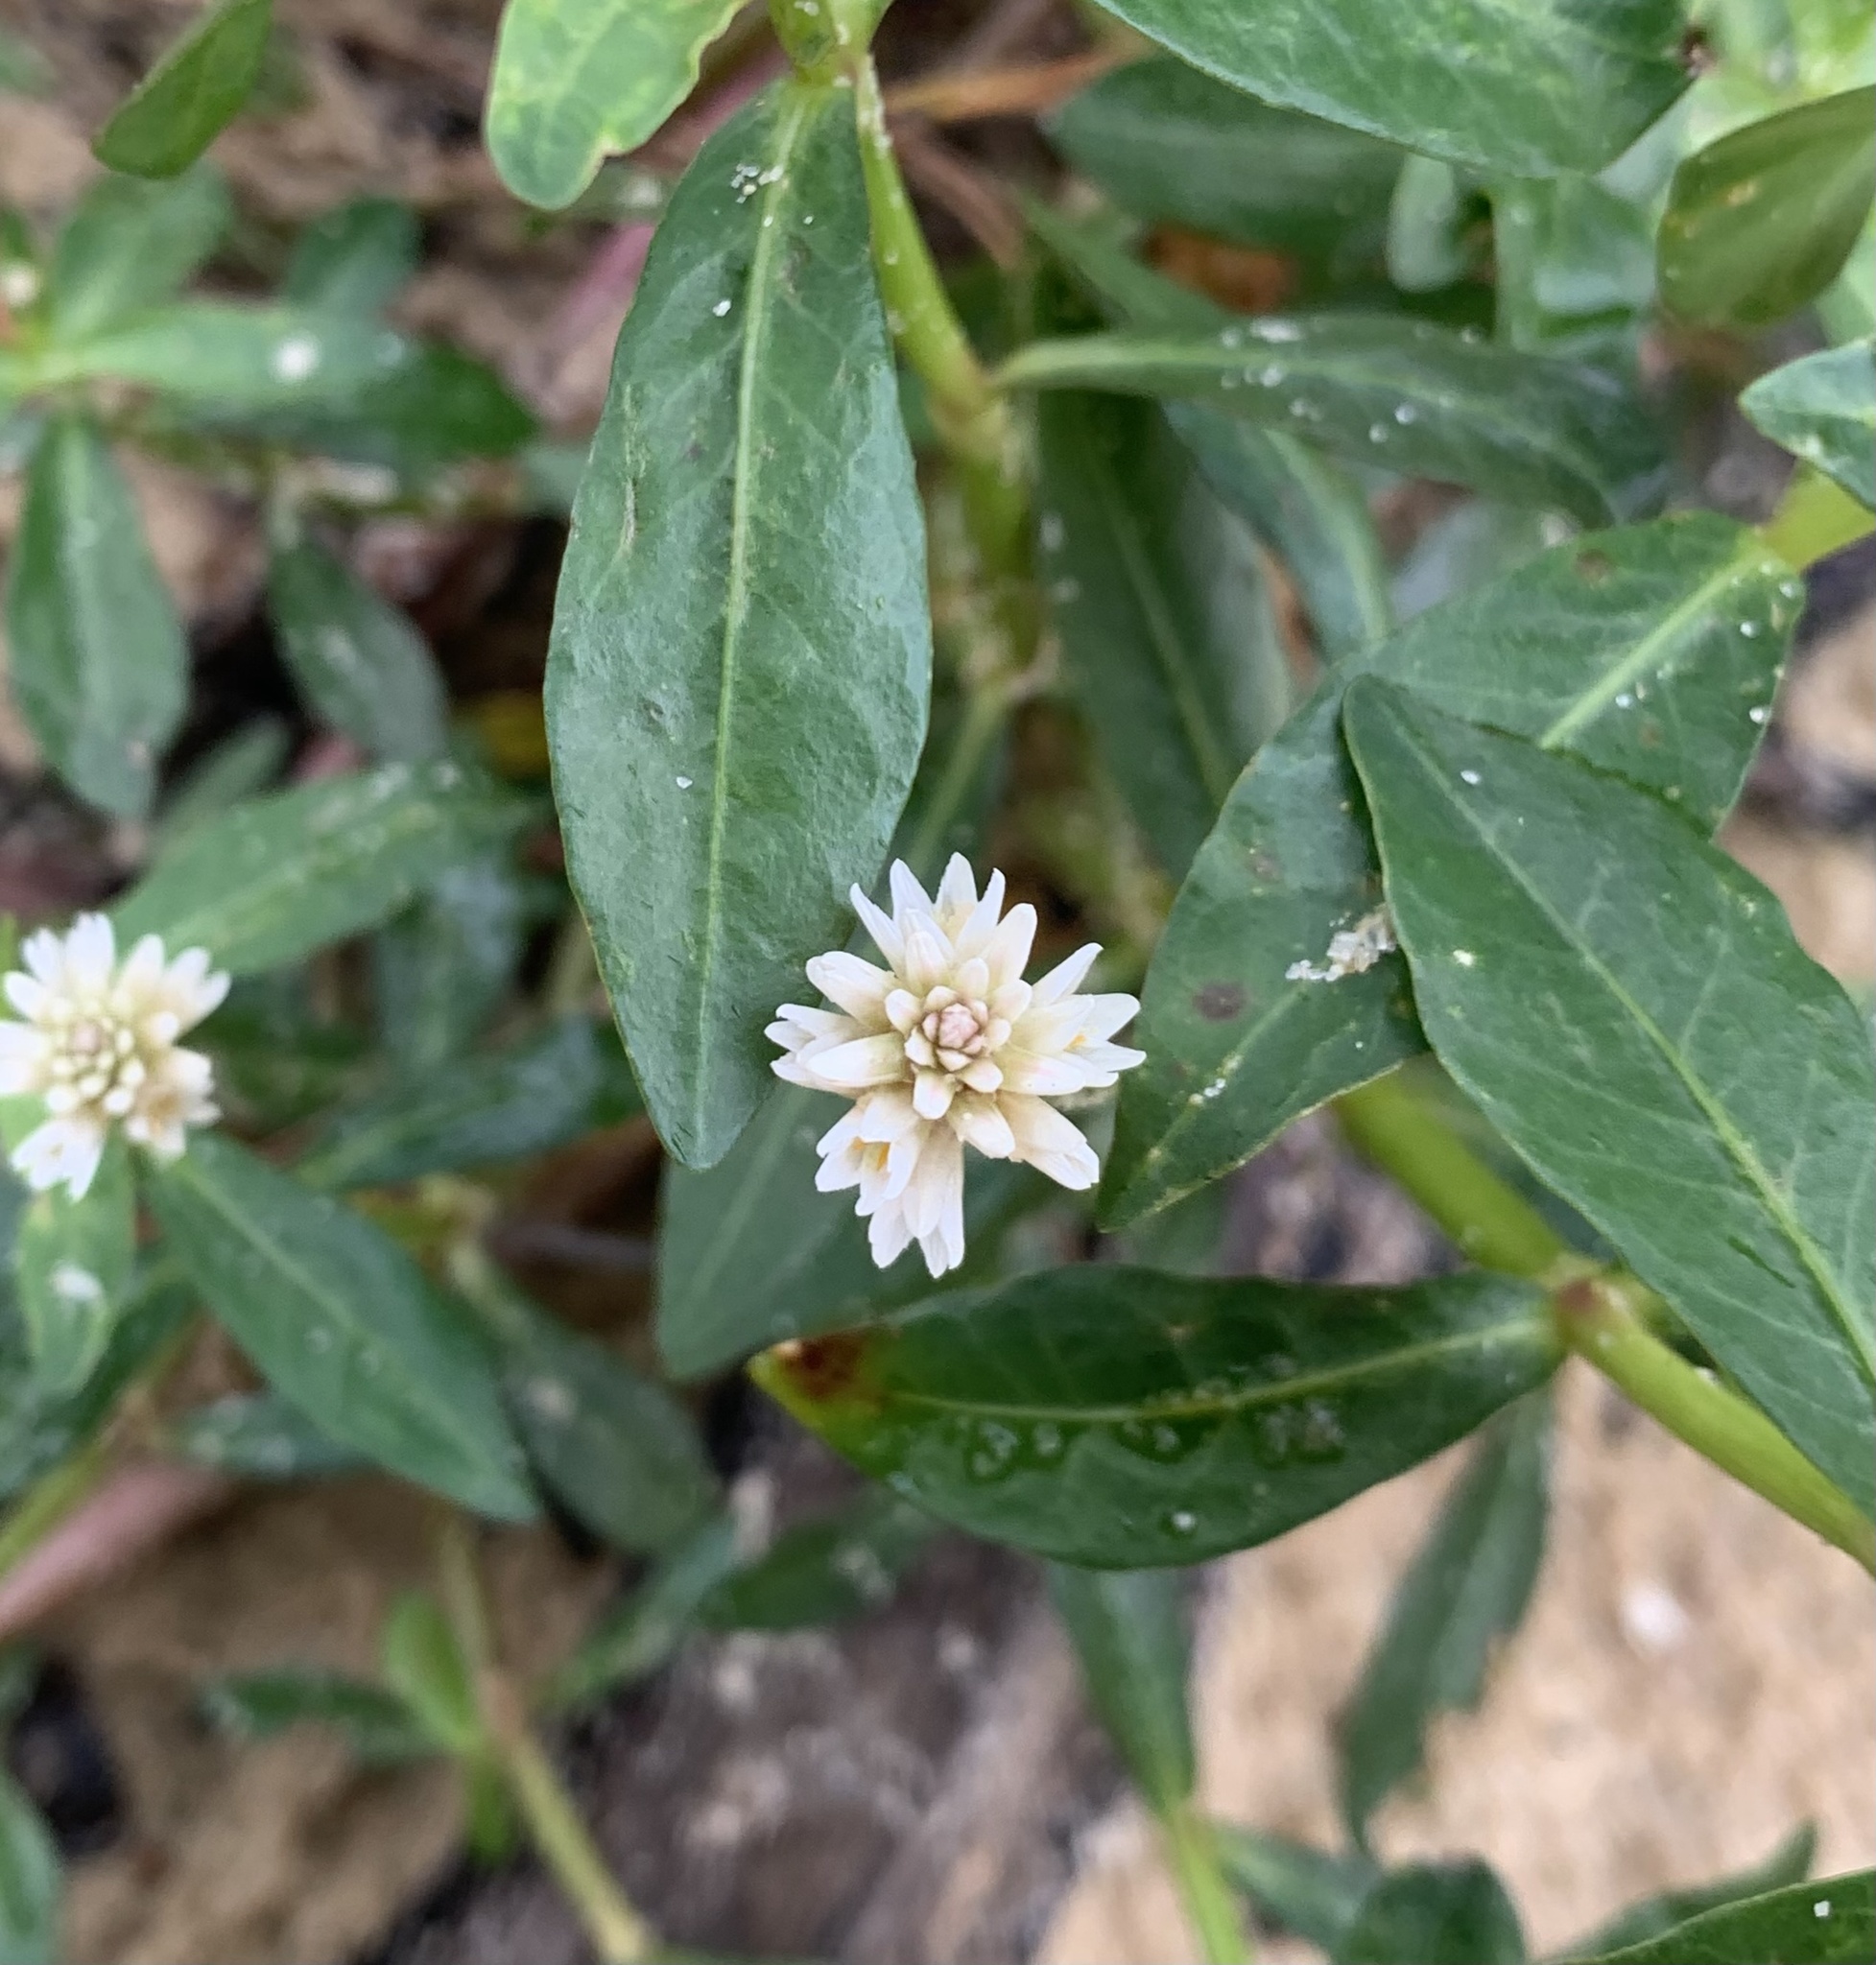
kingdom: Plantae
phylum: Tracheophyta
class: Magnoliopsida
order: Caryophyllales
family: Amaranthaceae
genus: Alternanthera
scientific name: Alternanthera philoxeroides
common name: Alligatorweed
